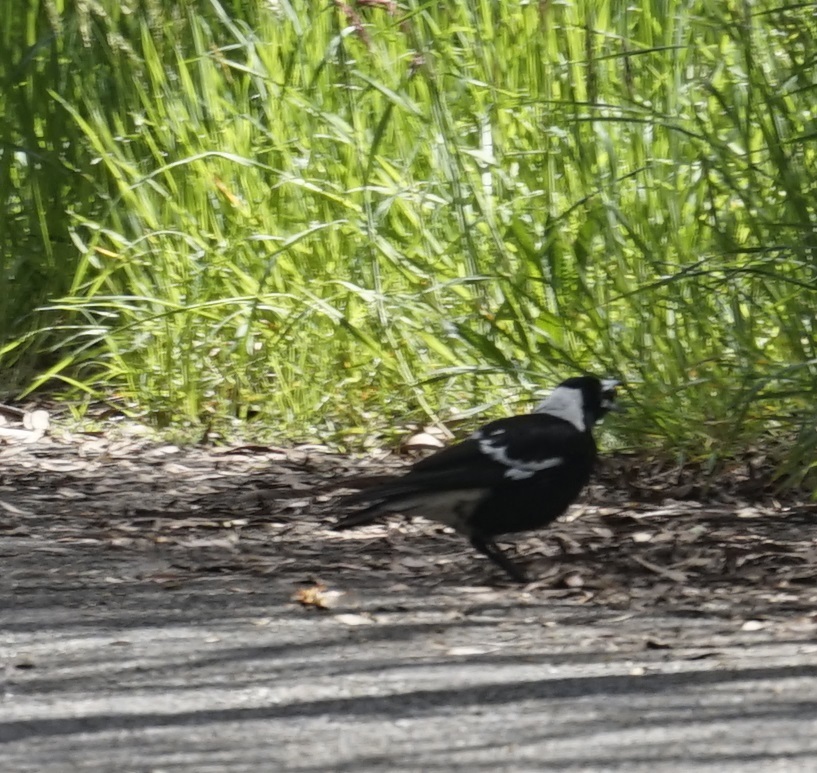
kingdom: Animalia
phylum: Chordata
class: Aves
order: Passeriformes
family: Cracticidae
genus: Gymnorhina
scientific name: Gymnorhina tibicen
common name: Australian magpie
